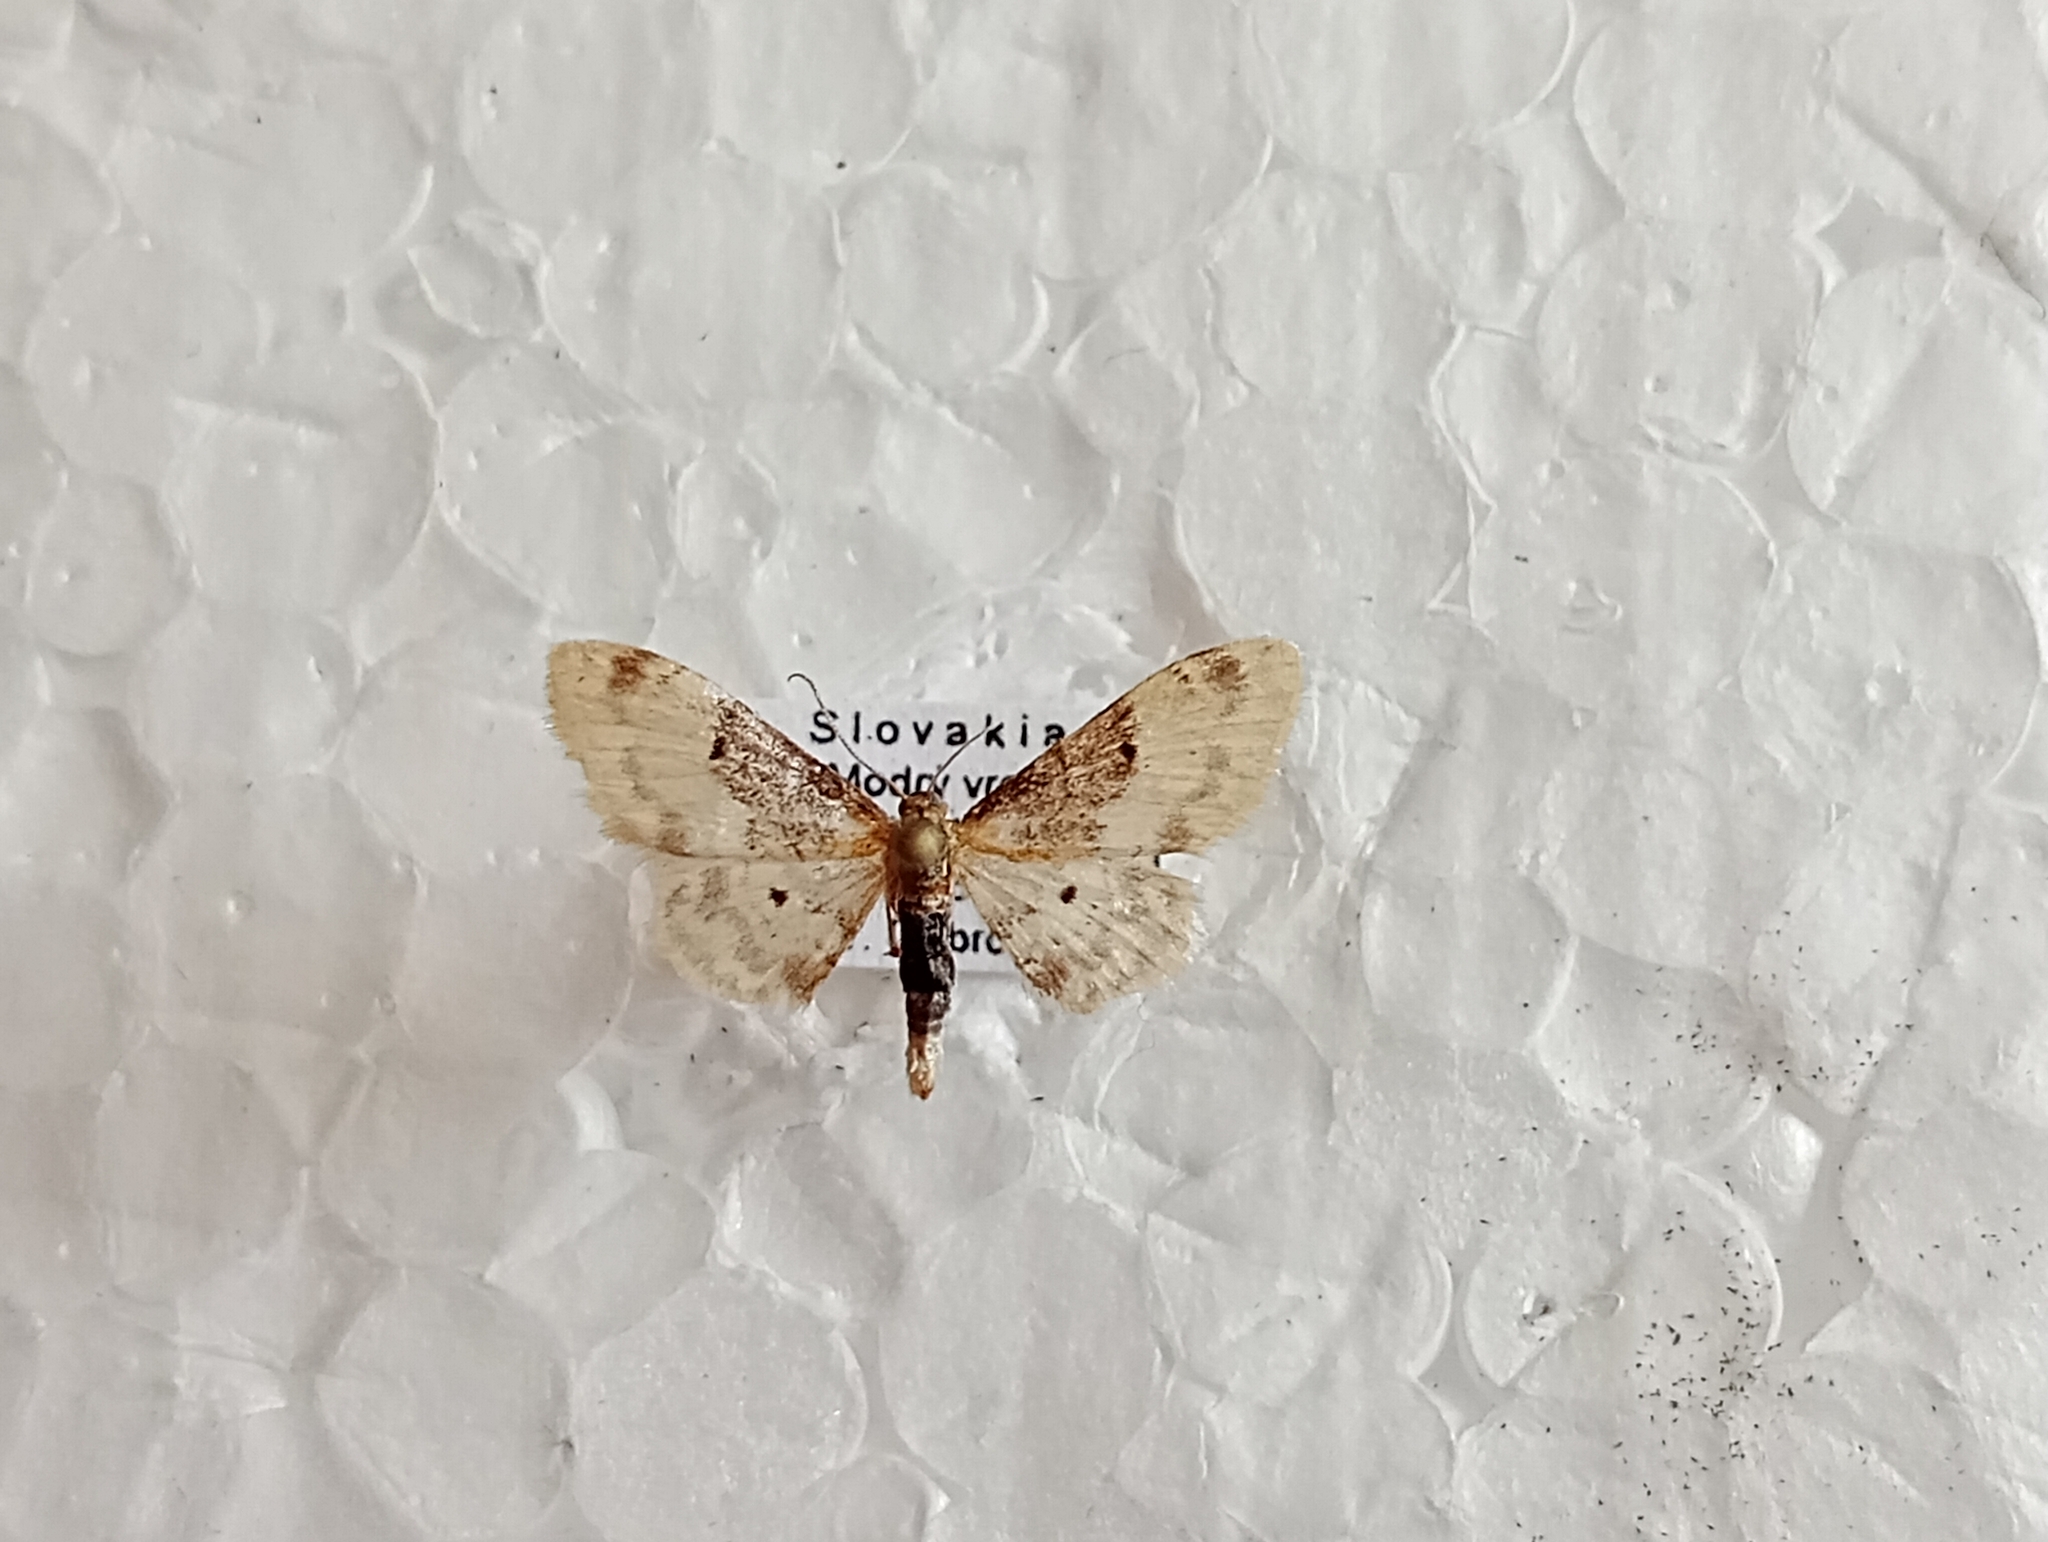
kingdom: Animalia
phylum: Arthropoda
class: Insecta
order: Lepidoptera
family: Geometridae
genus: Idaea
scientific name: Idaea filicata
